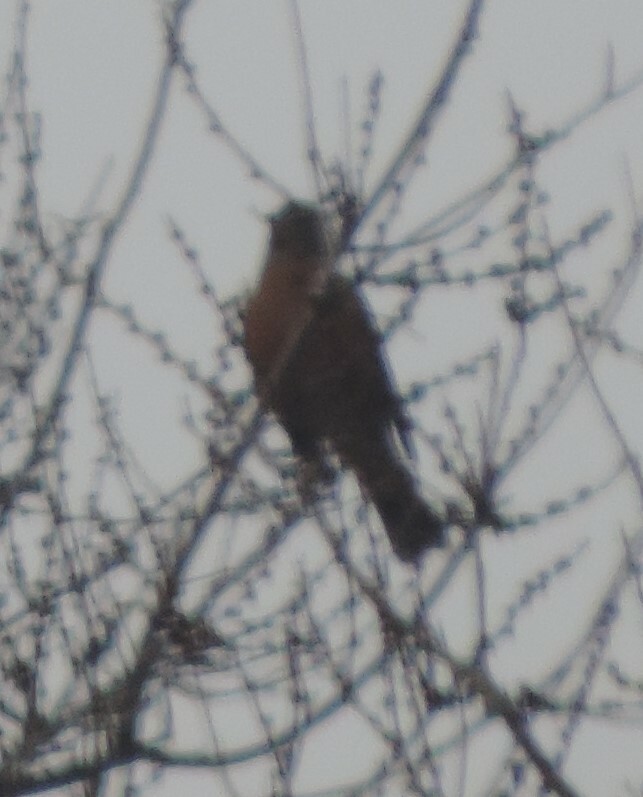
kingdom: Animalia
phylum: Chordata
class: Aves
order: Passeriformes
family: Turdidae
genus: Turdus
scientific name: Turdus migratorius
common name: American robin
